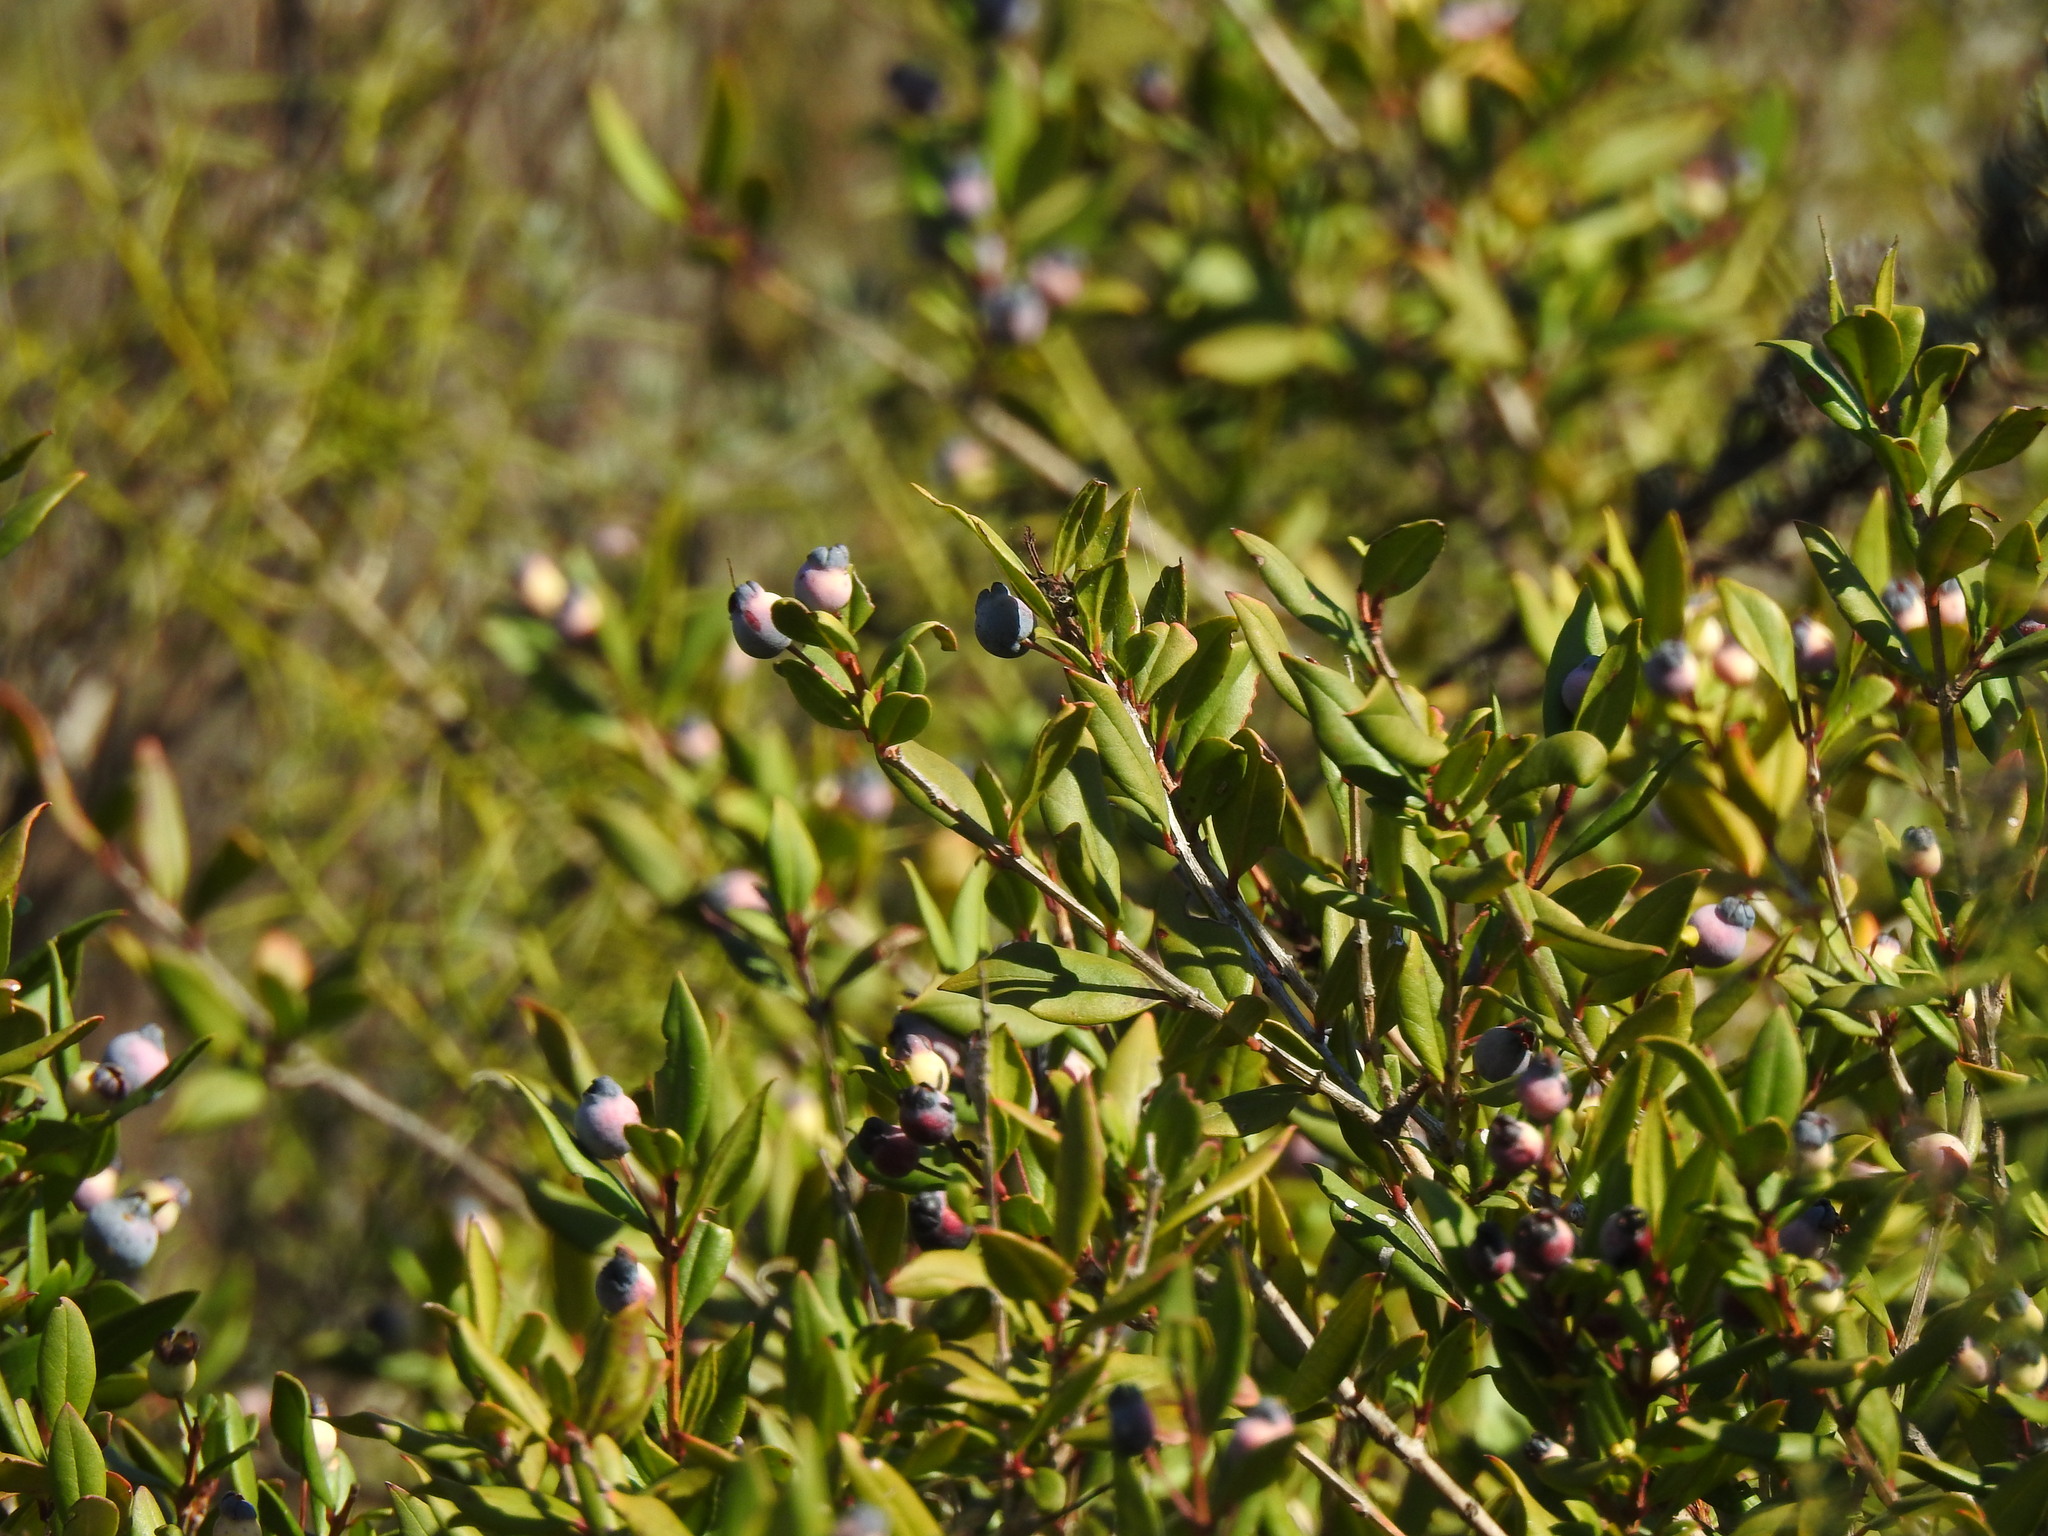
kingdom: Plantae
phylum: Tracheophyta
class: Magnoliopsida
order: Myrtales
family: Myrtaceae
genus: Myrtus
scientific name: Myrtus communis
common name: Myrtle
